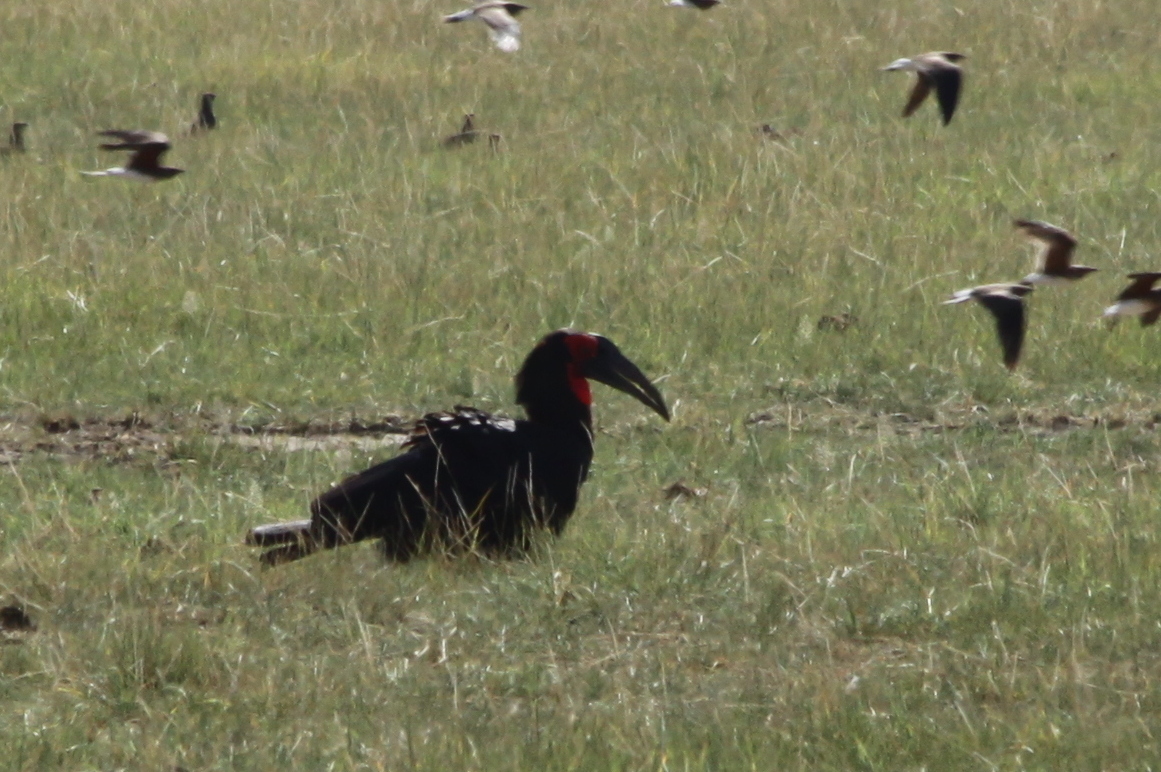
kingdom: Animalia
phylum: Chordata
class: Aves
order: Bucerotiformes
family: Bucorvidae
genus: Bucorvus
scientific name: Bucorvus leadbeateri
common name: Southern ground-hornbill
